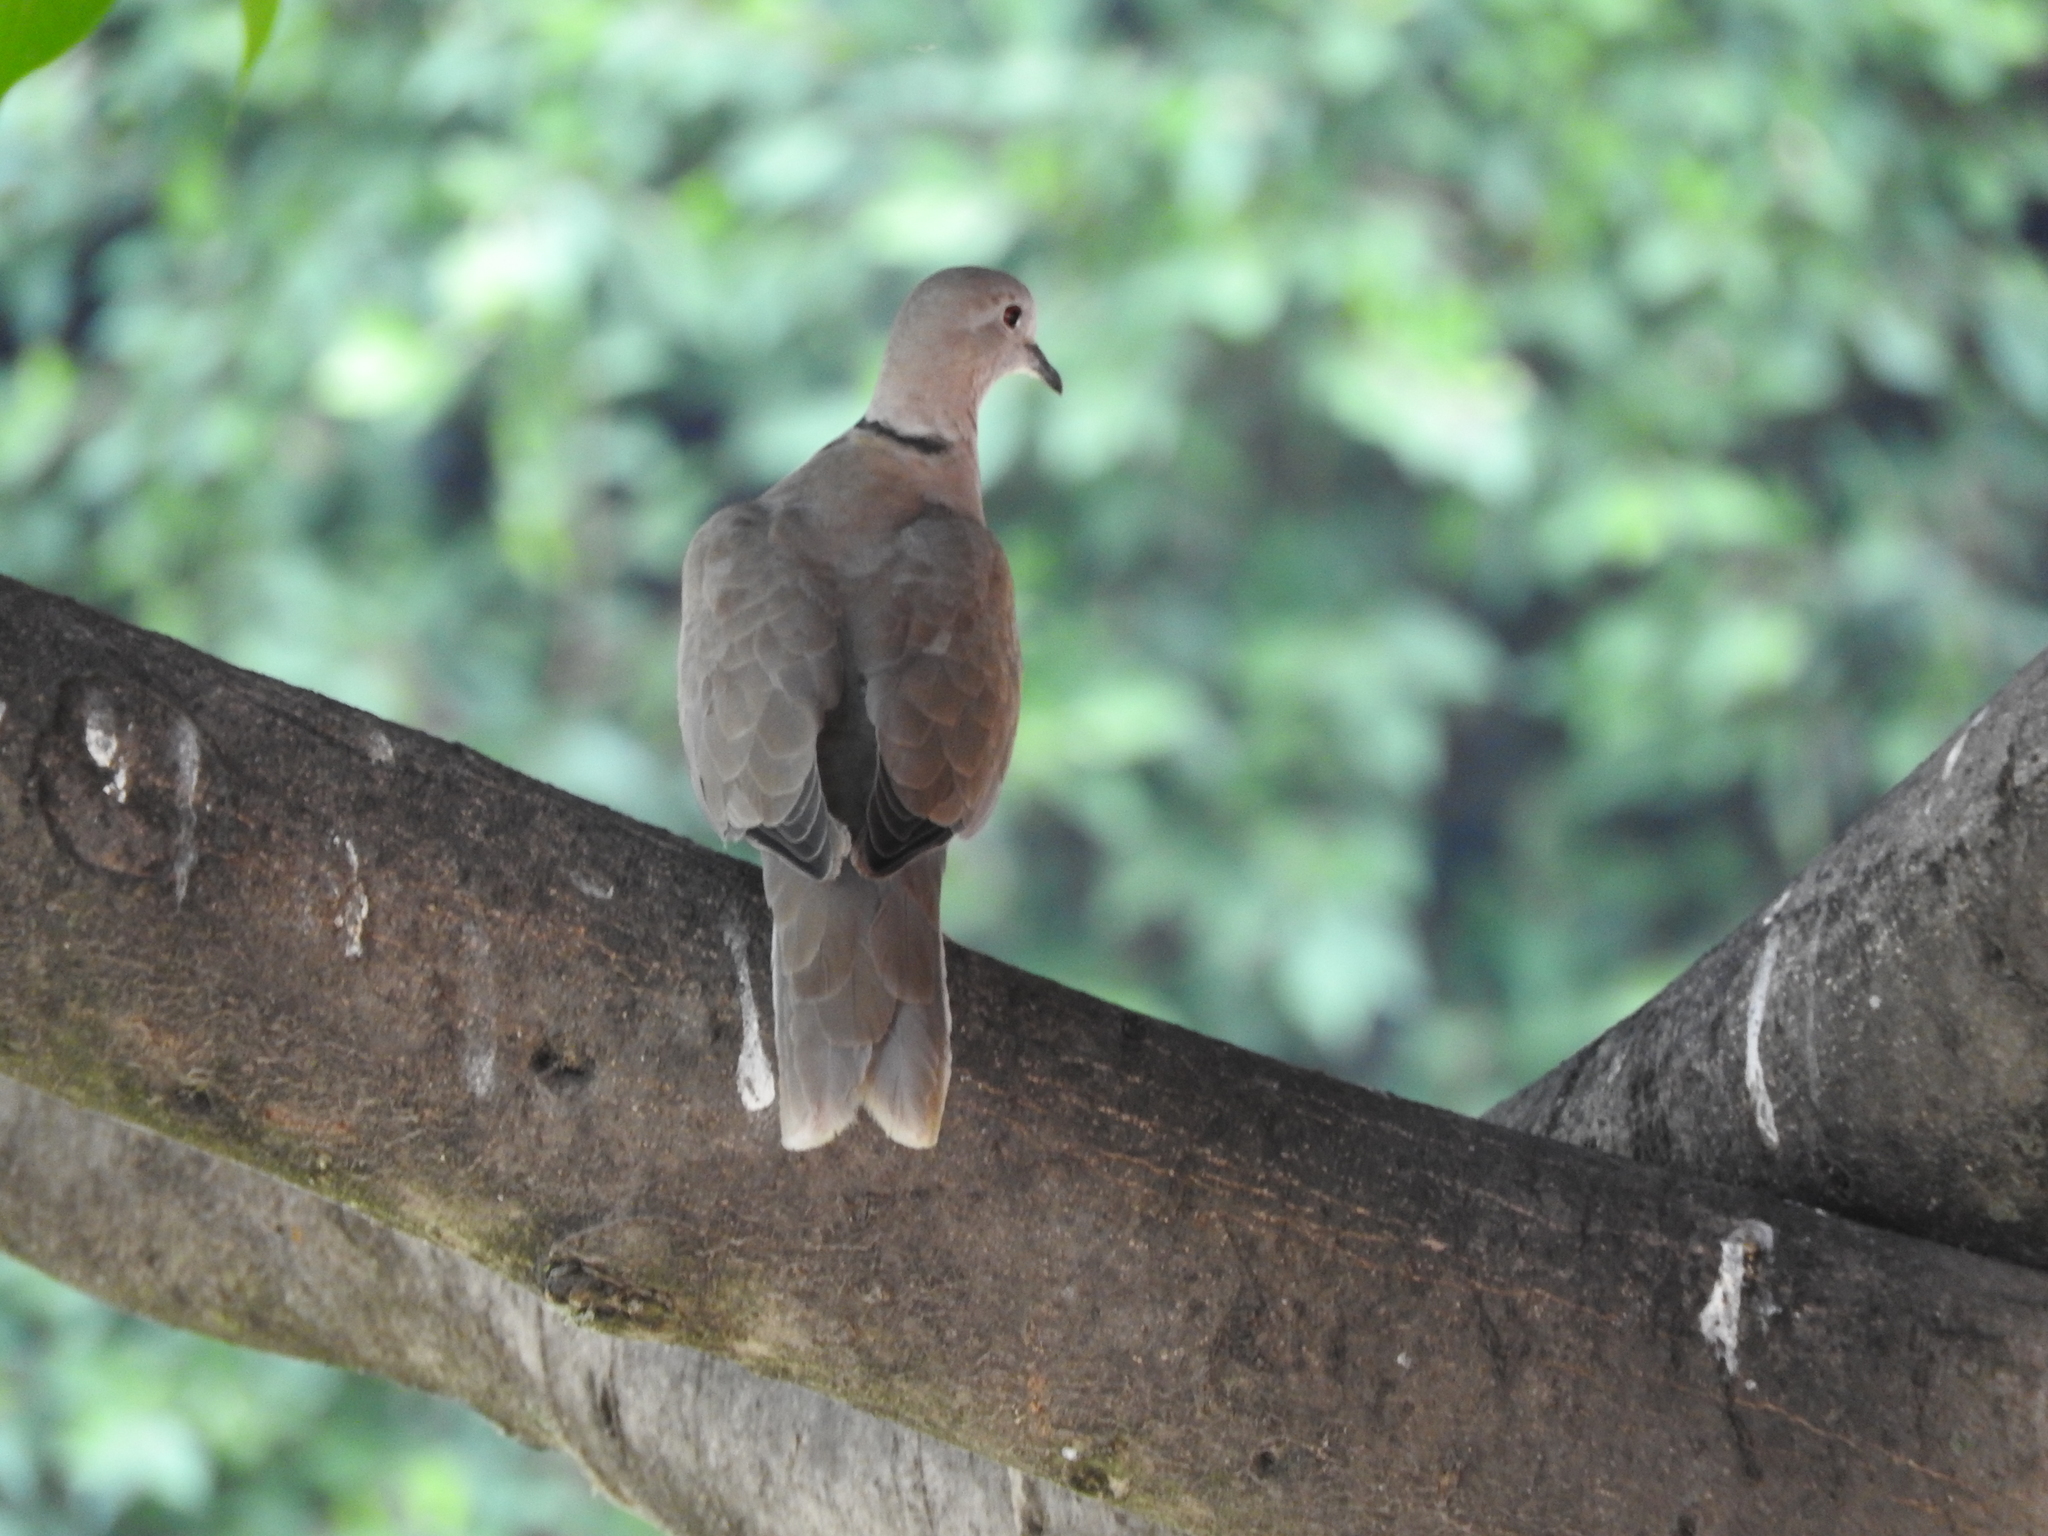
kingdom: Animalia
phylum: Chordata
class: Aves
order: Columbiformes
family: Columbidae
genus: Streptopelia
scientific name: Streptopelia decaocto
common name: Eurasian collared dove
